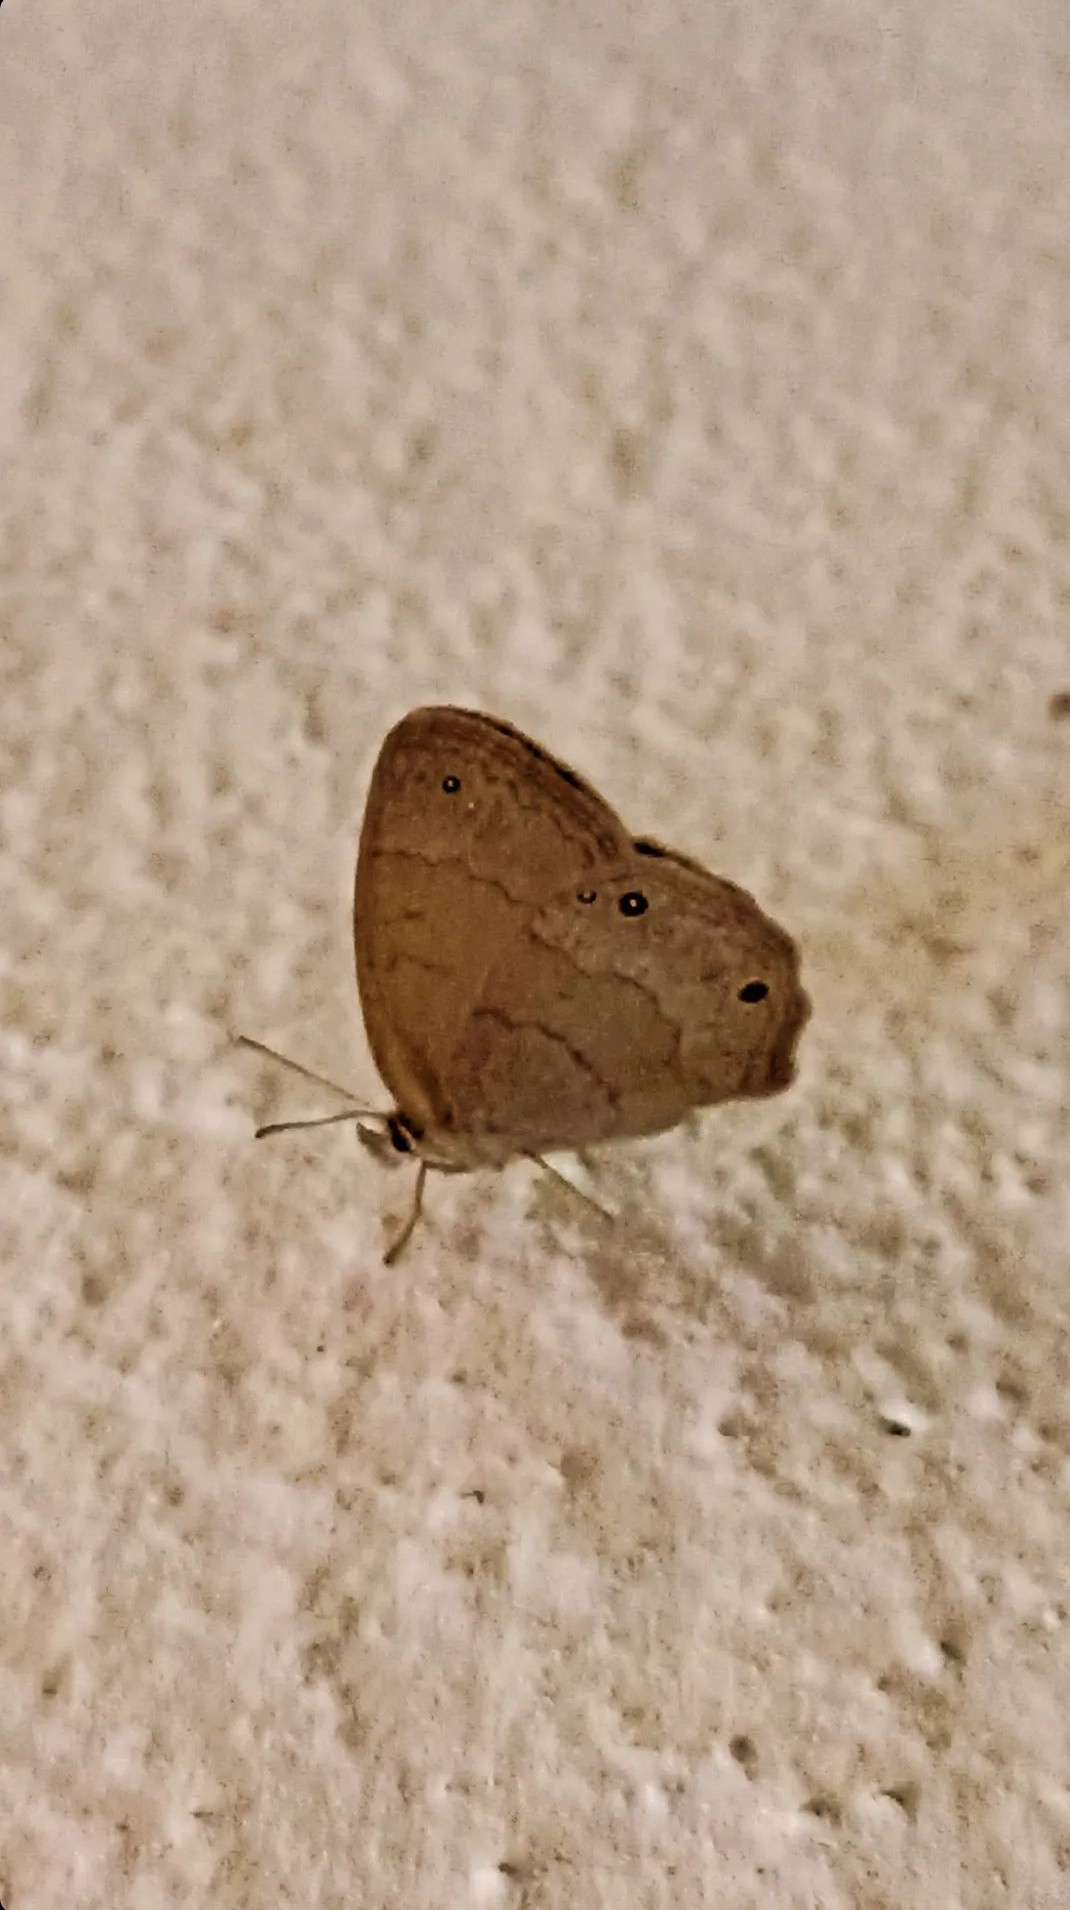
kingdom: Animalia
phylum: Arthropoda
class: Insecta
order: Lepidoptera
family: Nymphalidae
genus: Euptychia
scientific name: Euptychia Cissia eous
